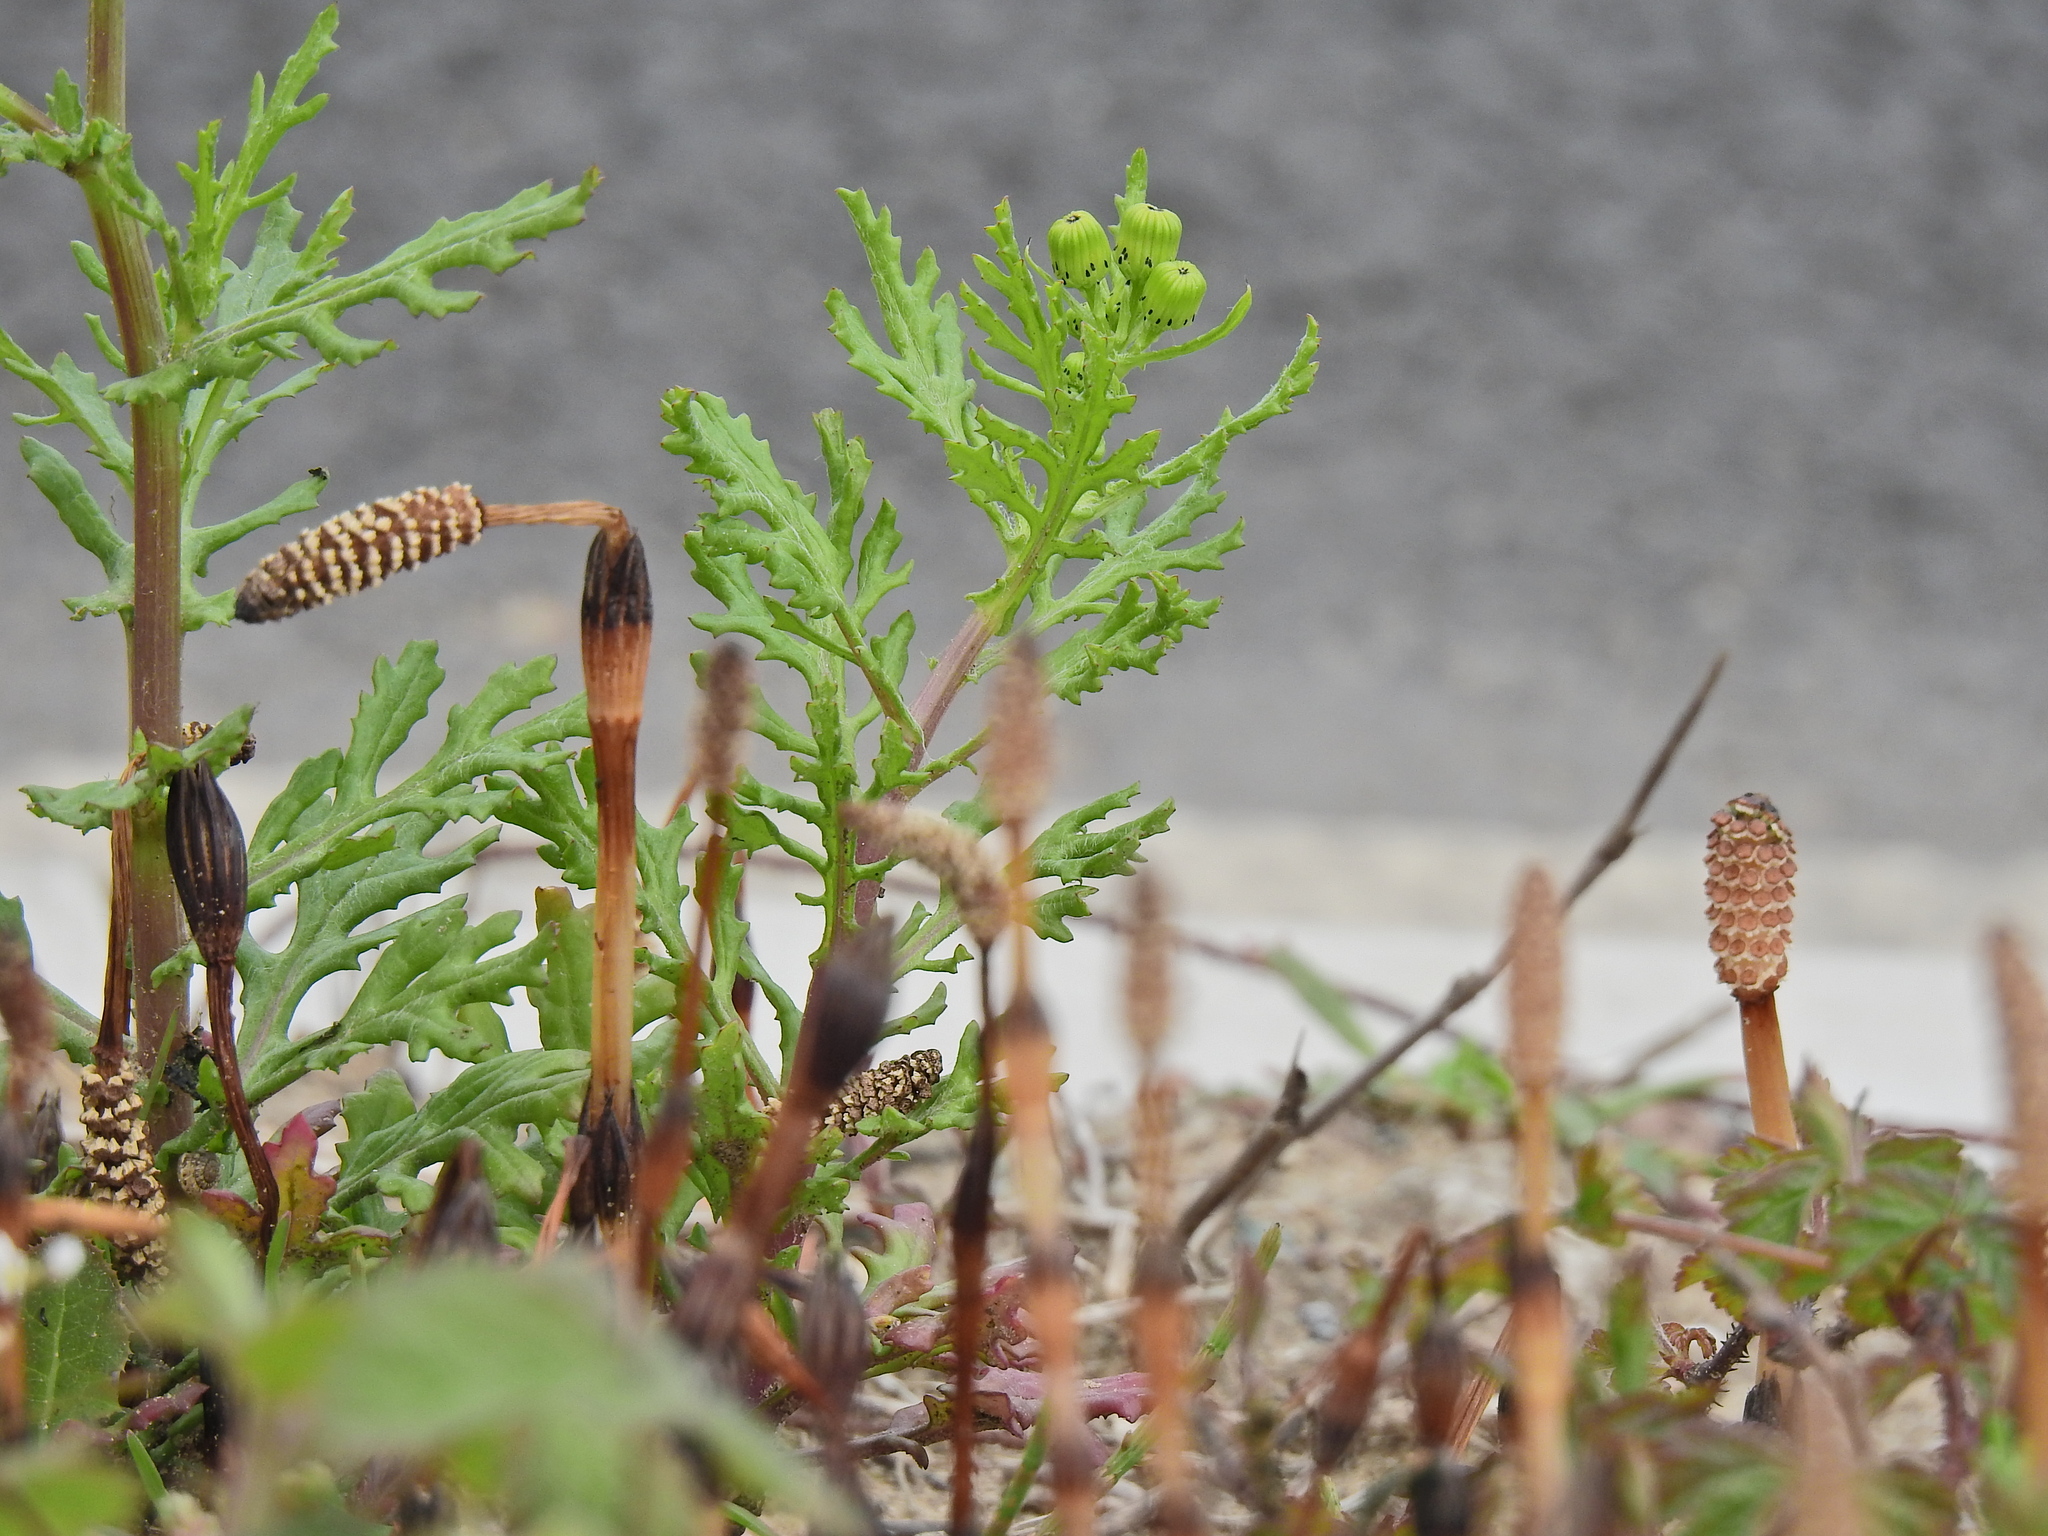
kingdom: Plantae
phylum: Tracheophyta
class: Polypodiopsida
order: Equisetales
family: Equisetaceae
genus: Equisetum
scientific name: Equisetum arvense
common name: Field horsetail
